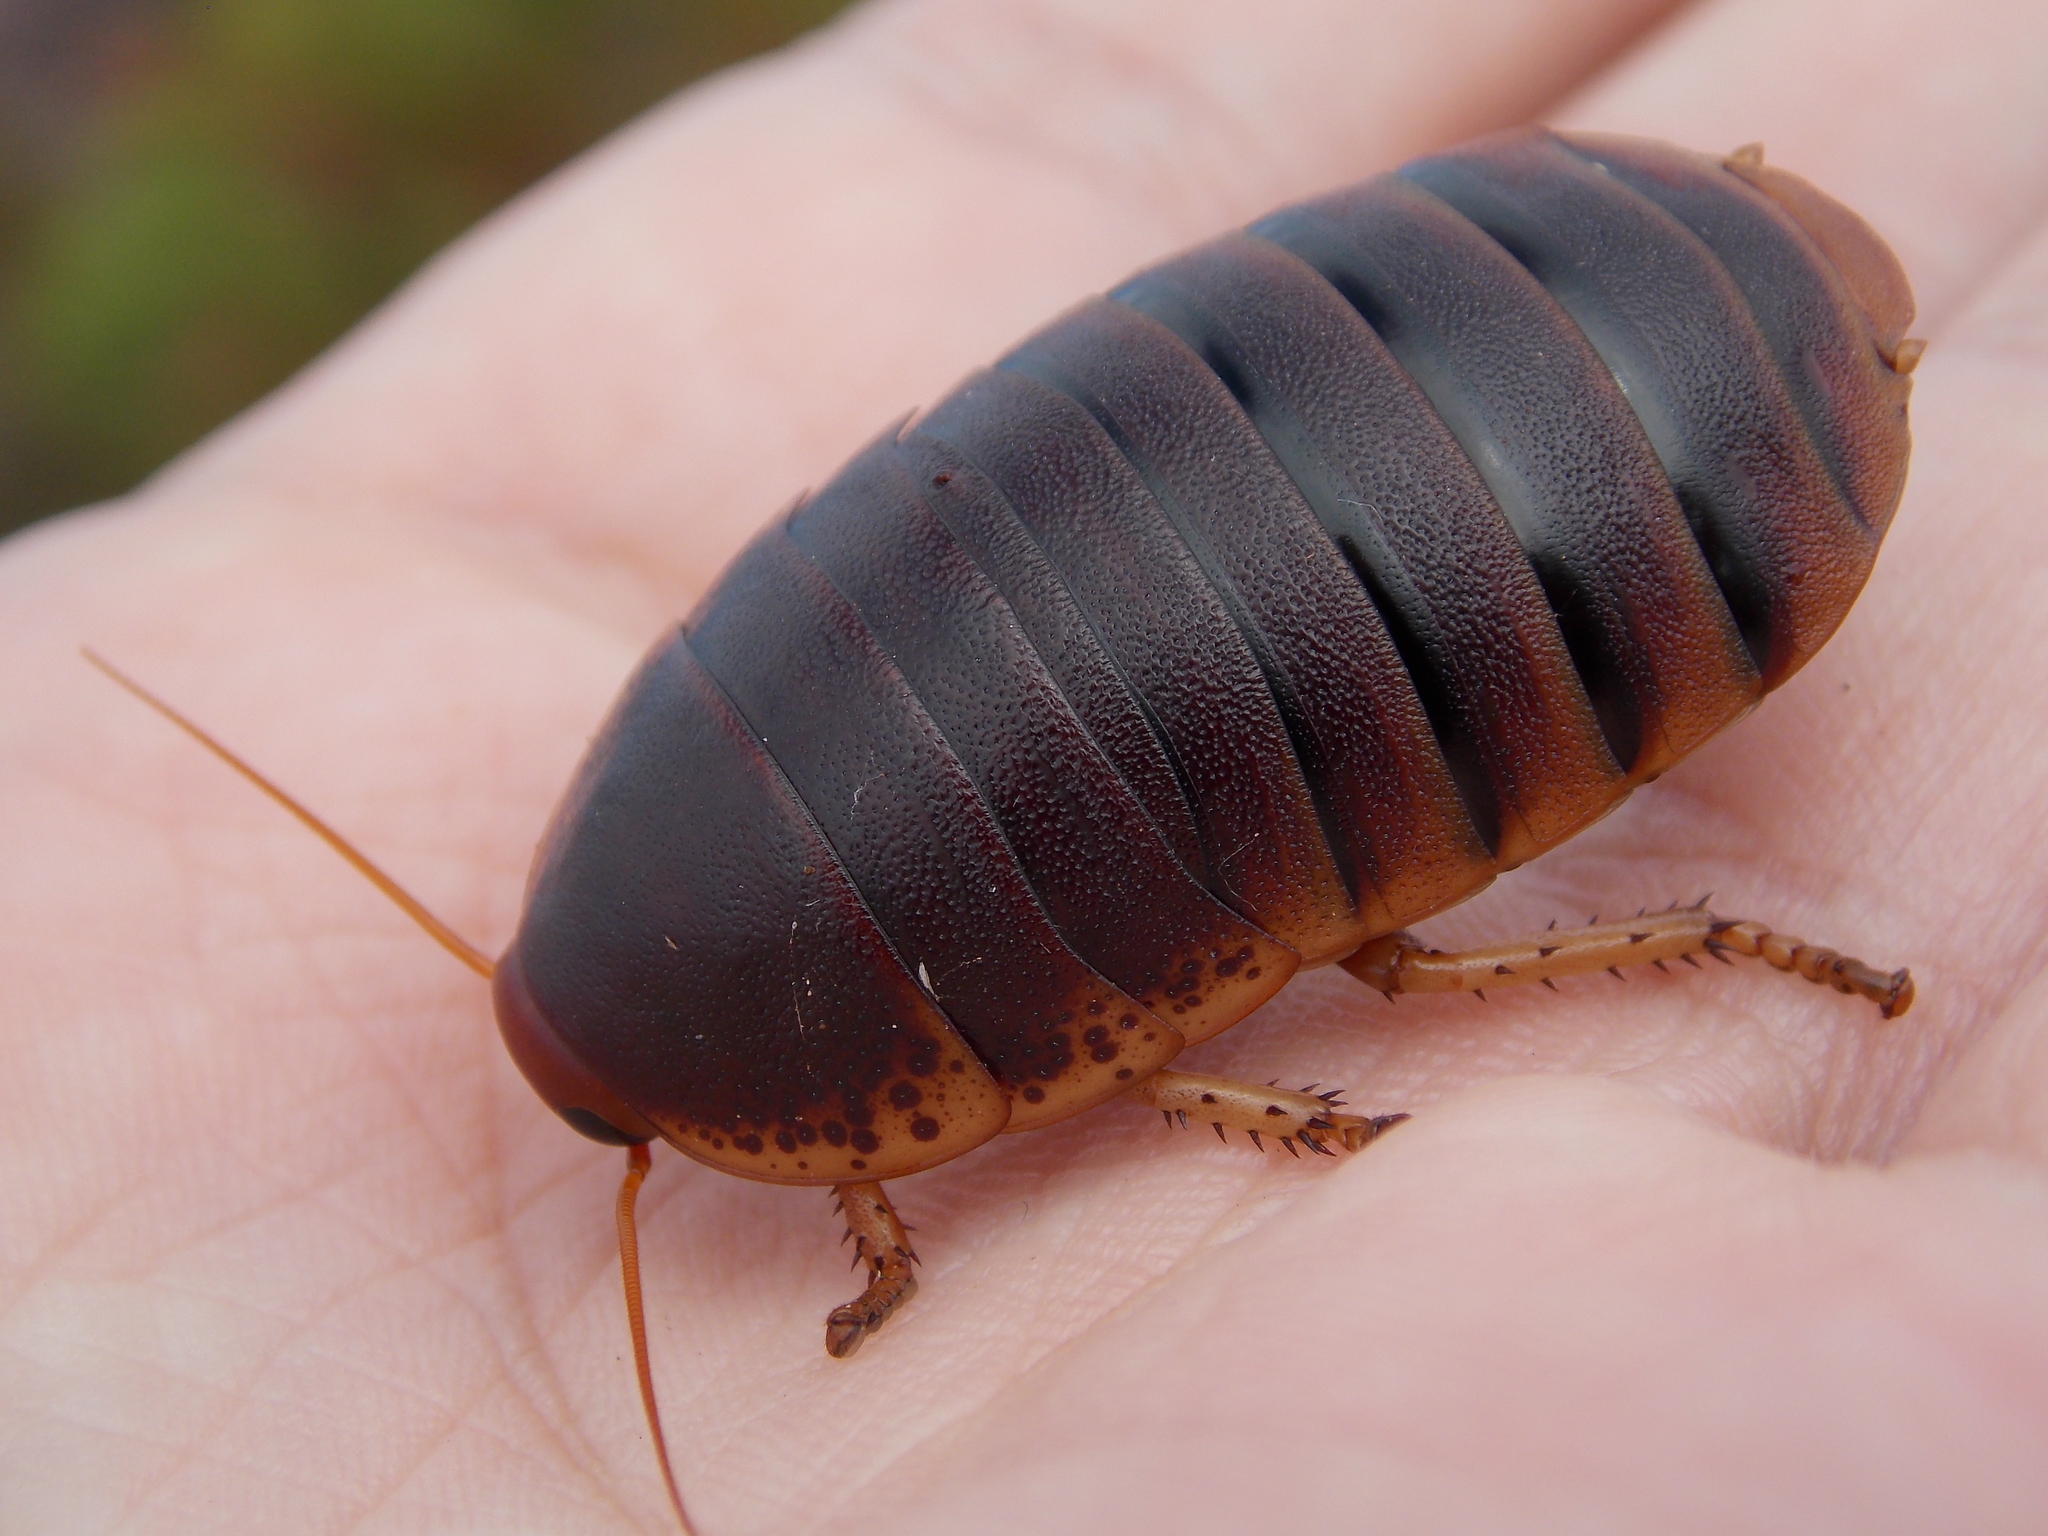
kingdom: Animalia
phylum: Arthropoda
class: Insecta
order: Blattodea
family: Blaberidae
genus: Aptera
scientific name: Aptera fusca
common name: Cape mountain cockroach
